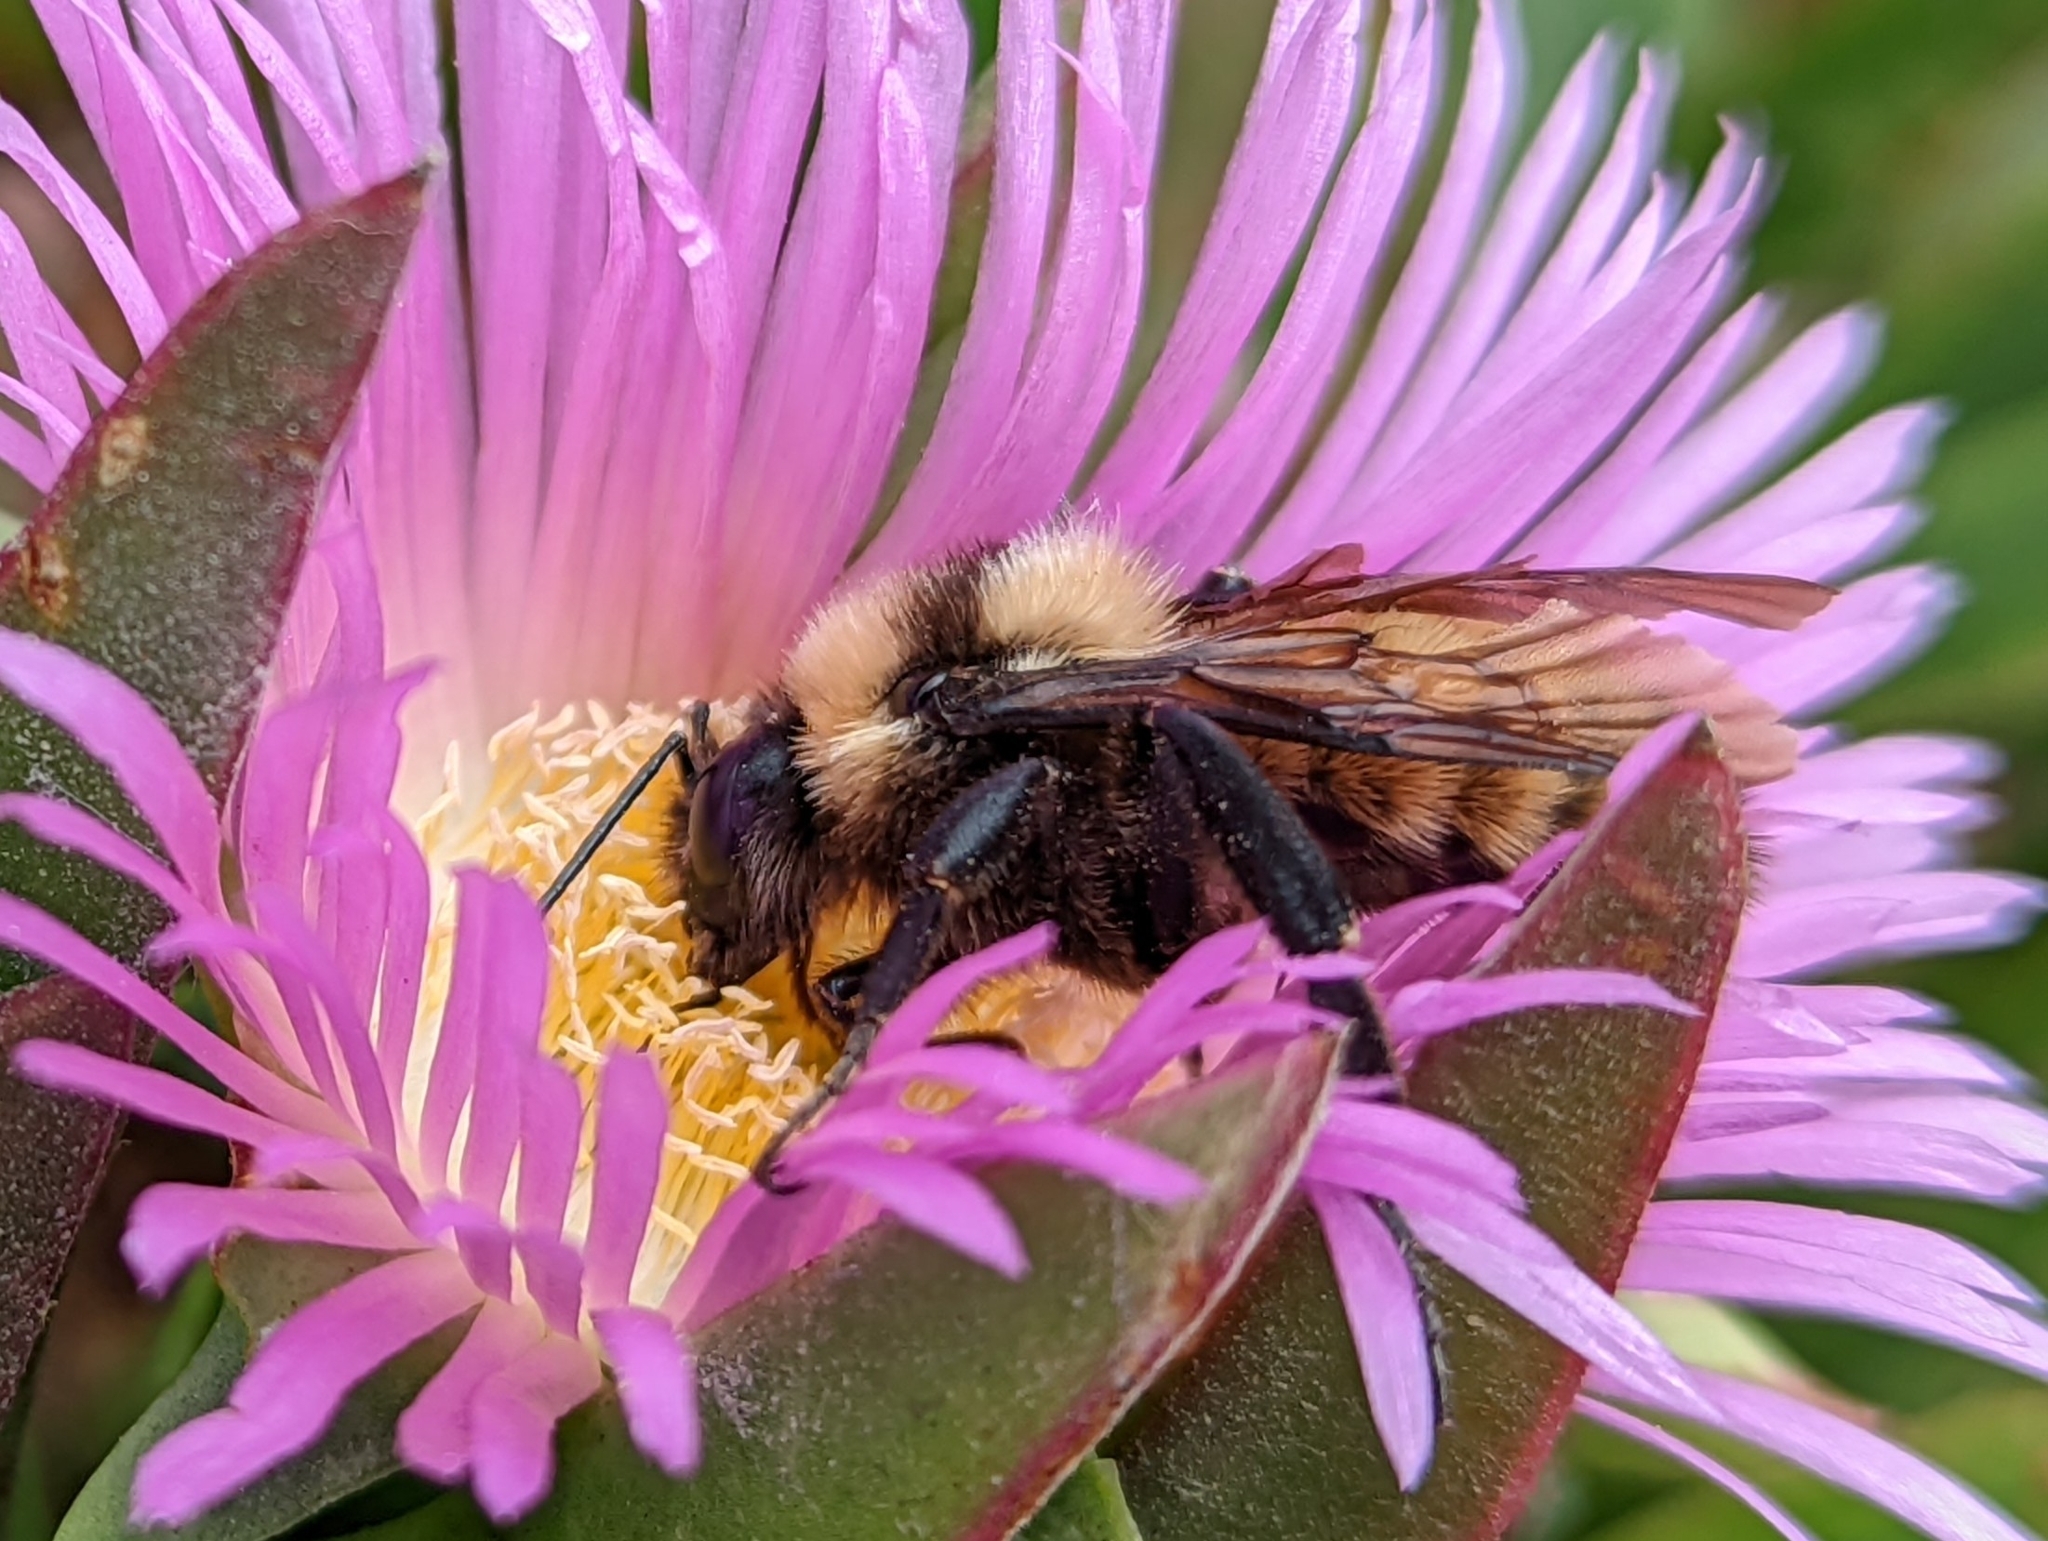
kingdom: Animalia
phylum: Arthropoda
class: Insecta
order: Hymenoptera
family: Apidae
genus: Bombus
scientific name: Bombus sonorus
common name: Sonoran bumble bee
